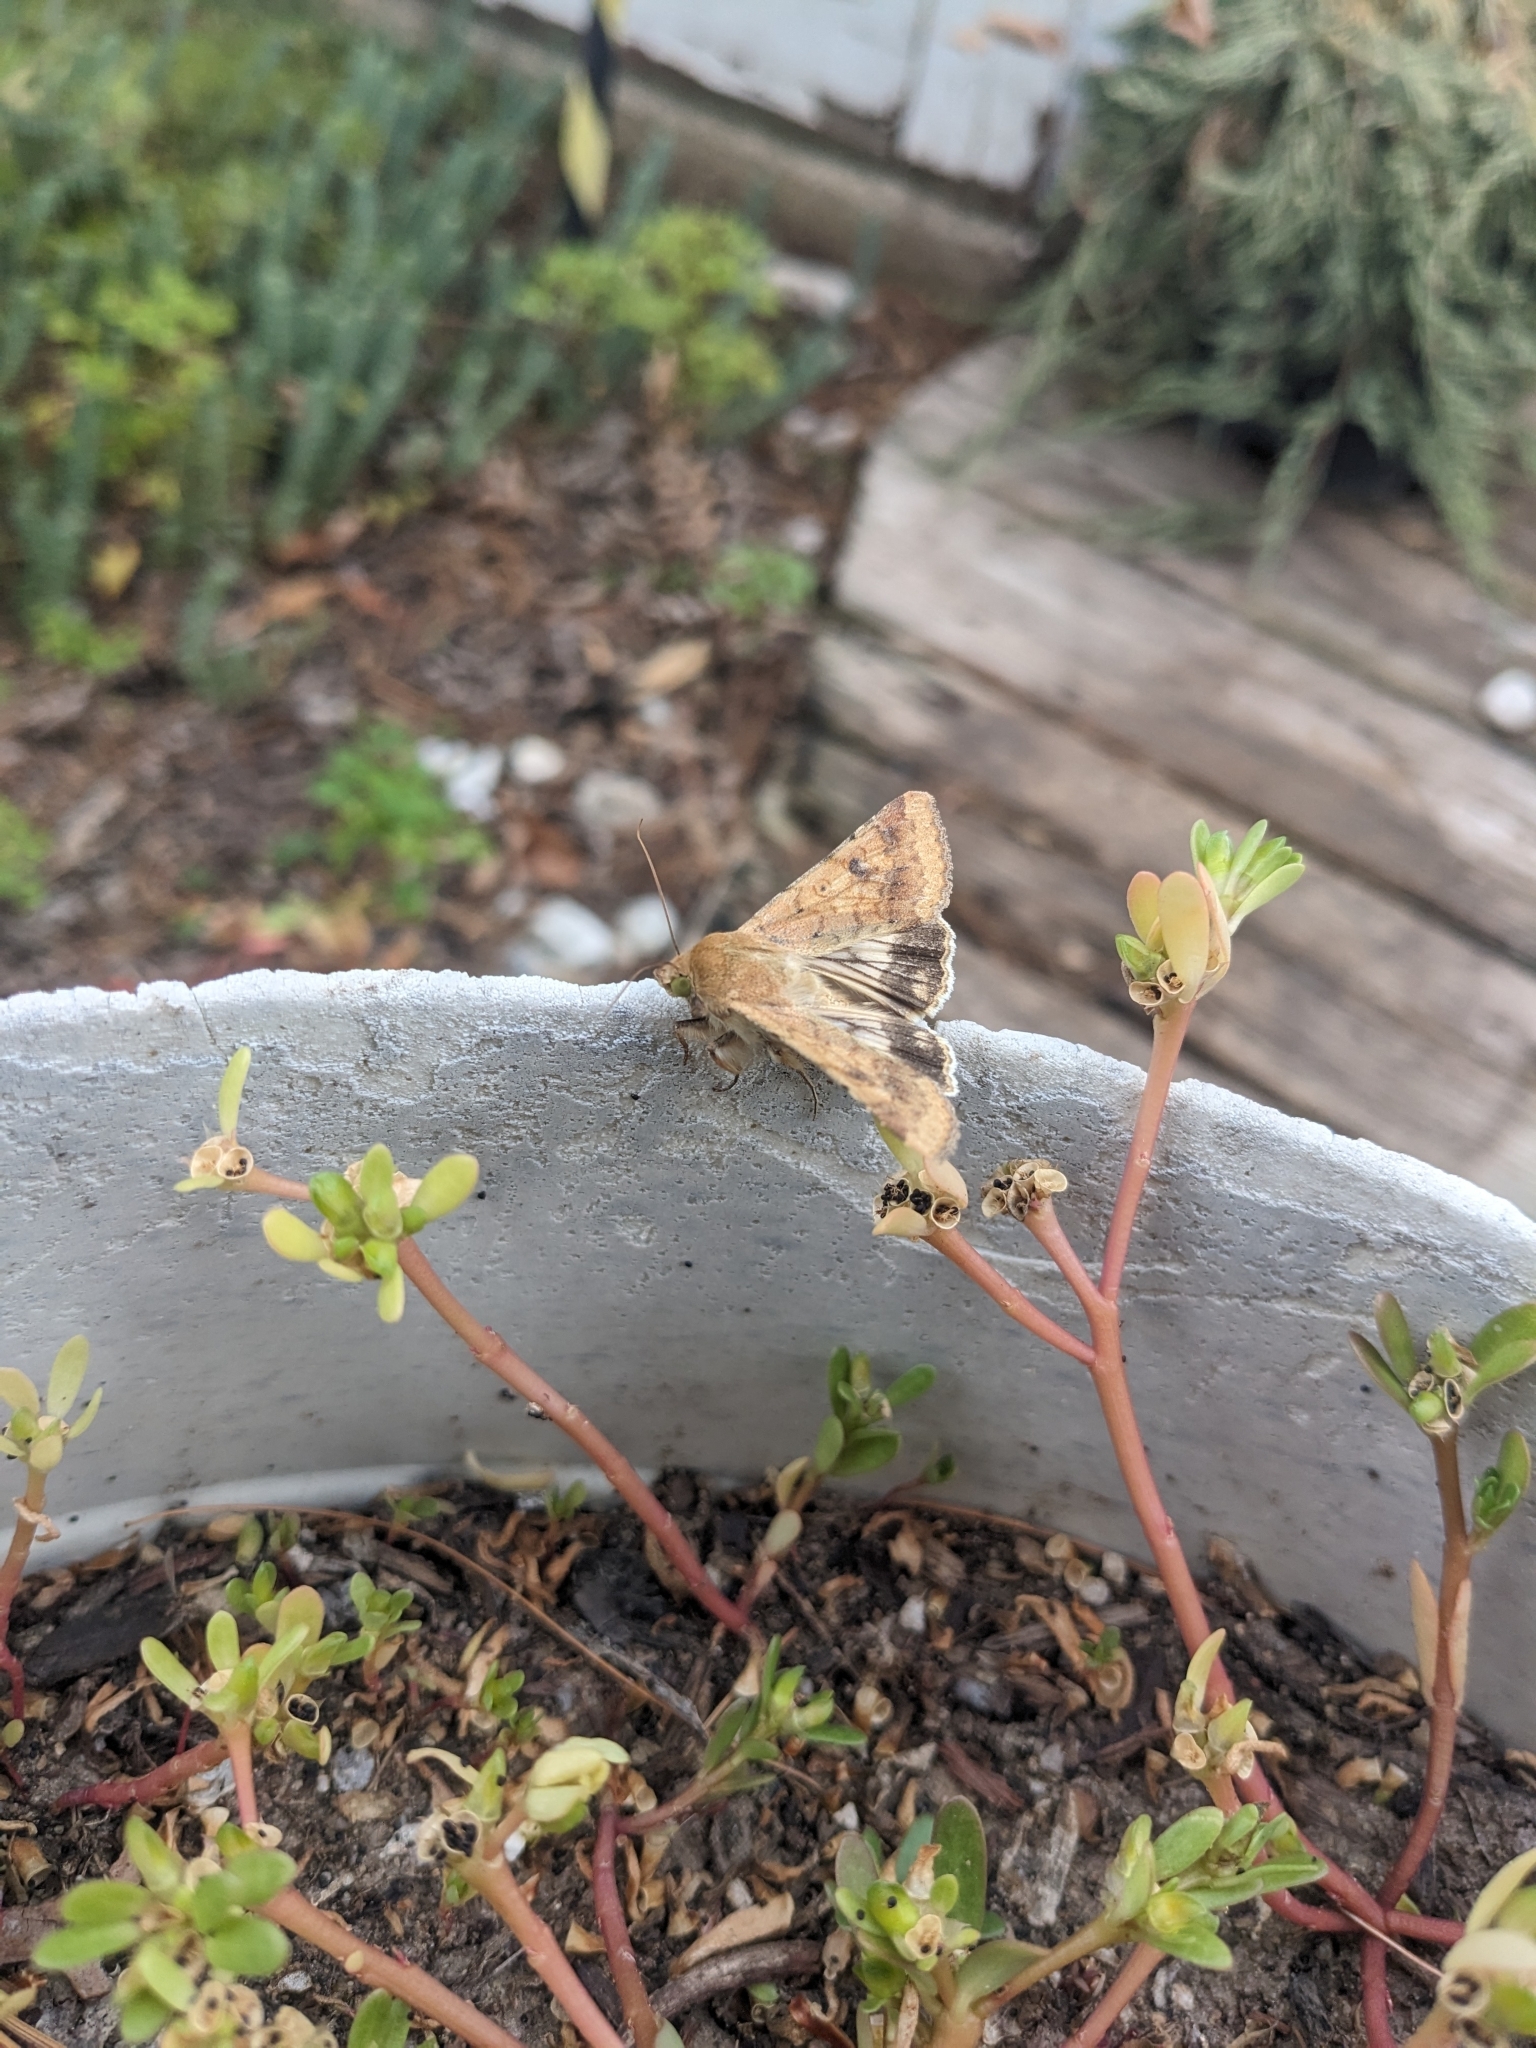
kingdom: Animalia
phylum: Arthropoda
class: Insecta
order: Lepidoptera
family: Noctuidae
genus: Helicoverpa
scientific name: Helicoverpa zea
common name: Bollworm
